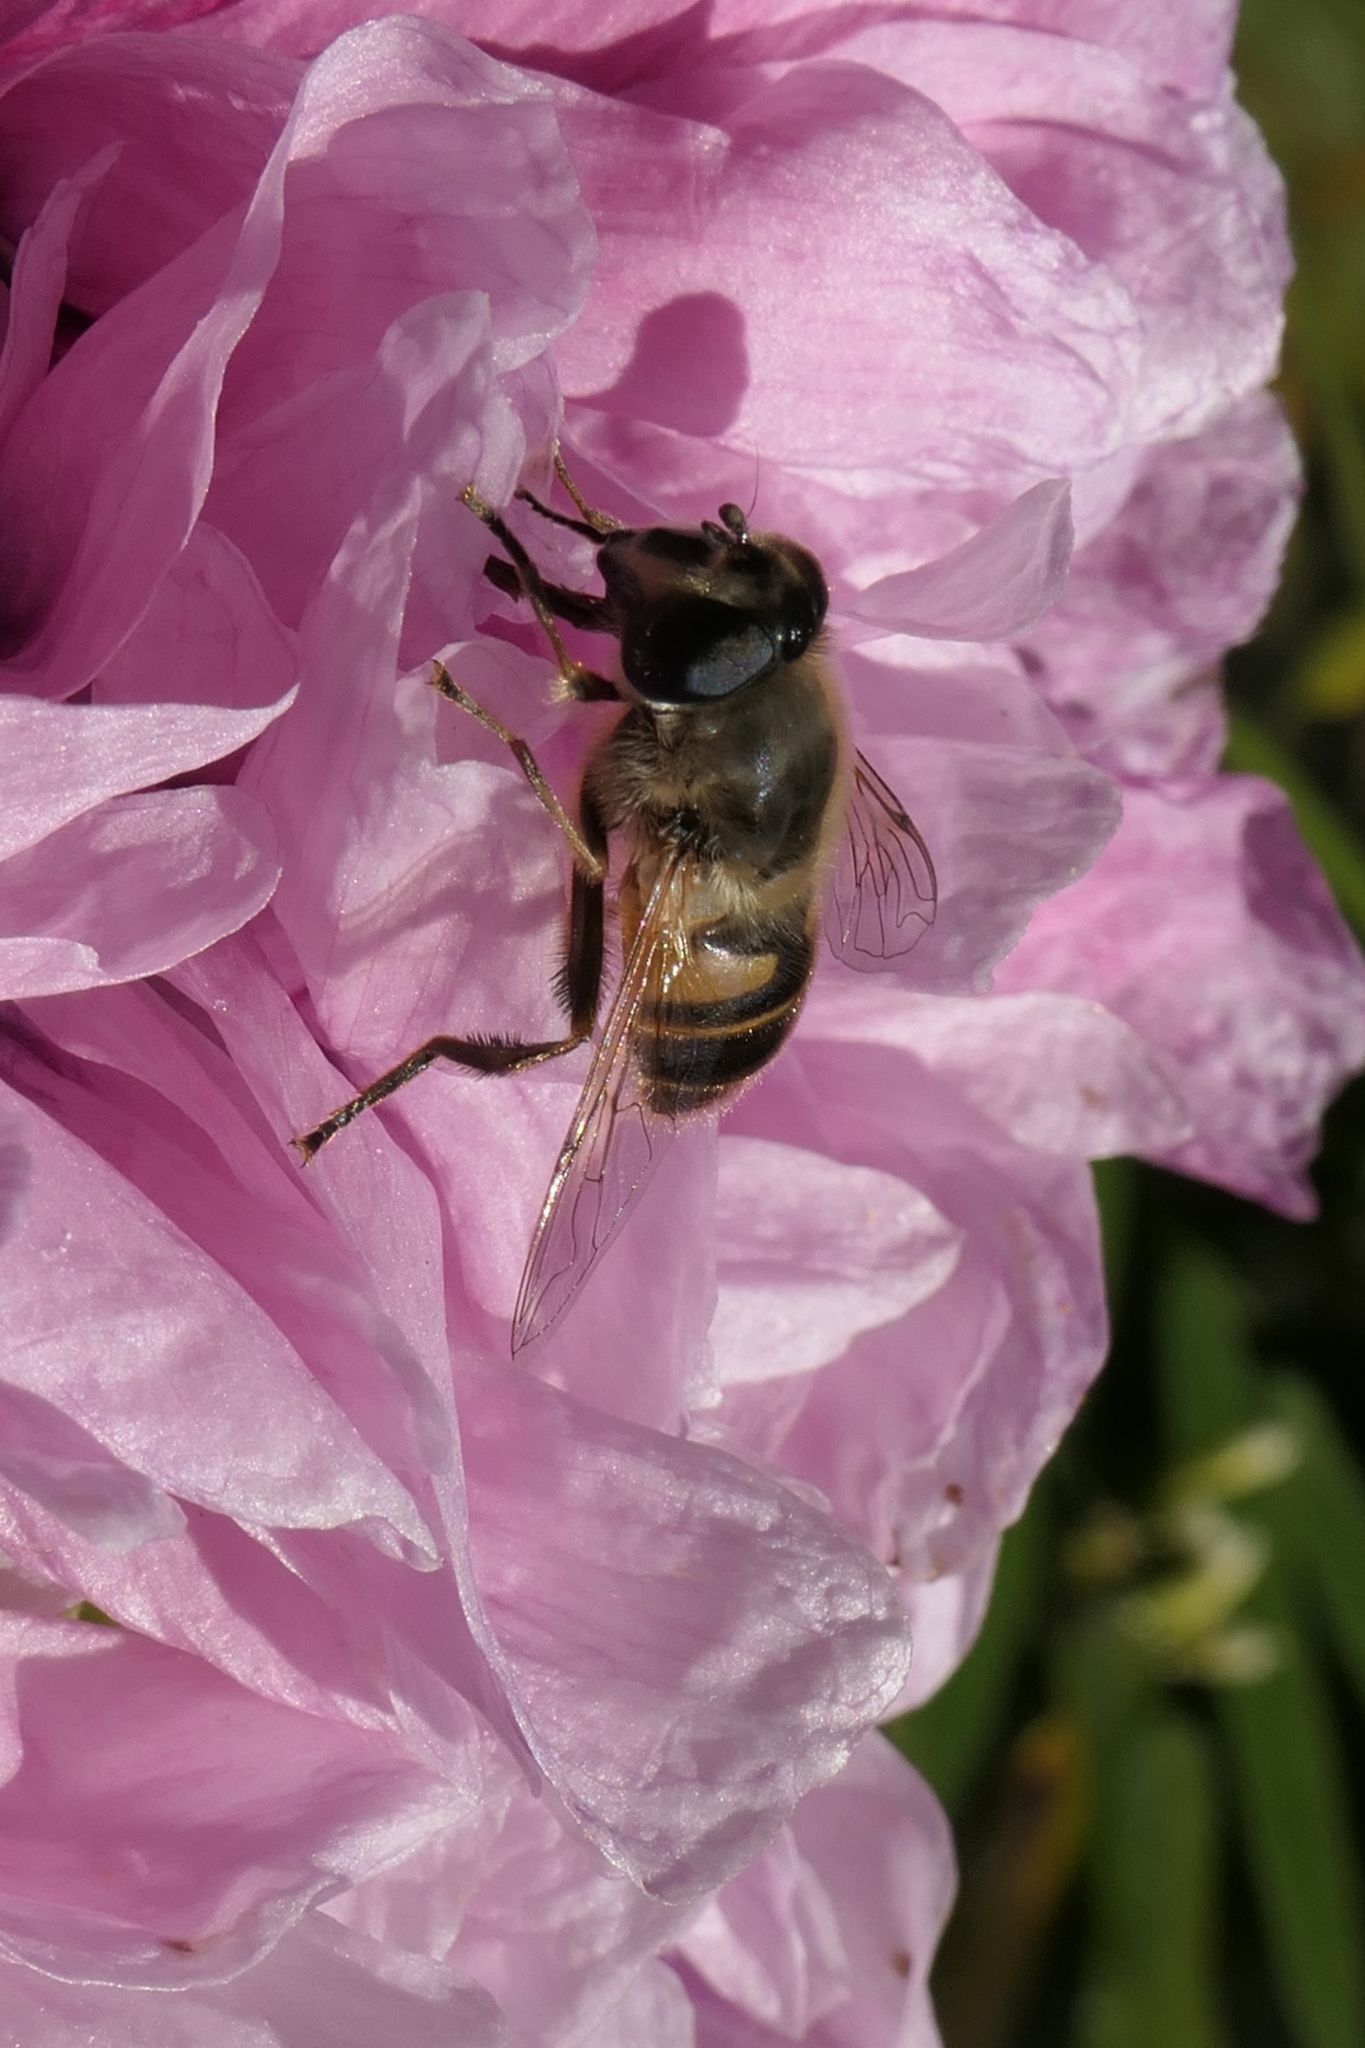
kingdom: Animalia
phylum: Arthropoda
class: Insecta
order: Diptera
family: Syrphidae
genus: Eristalis
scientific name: Eristalis tenax
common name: Drone fly
